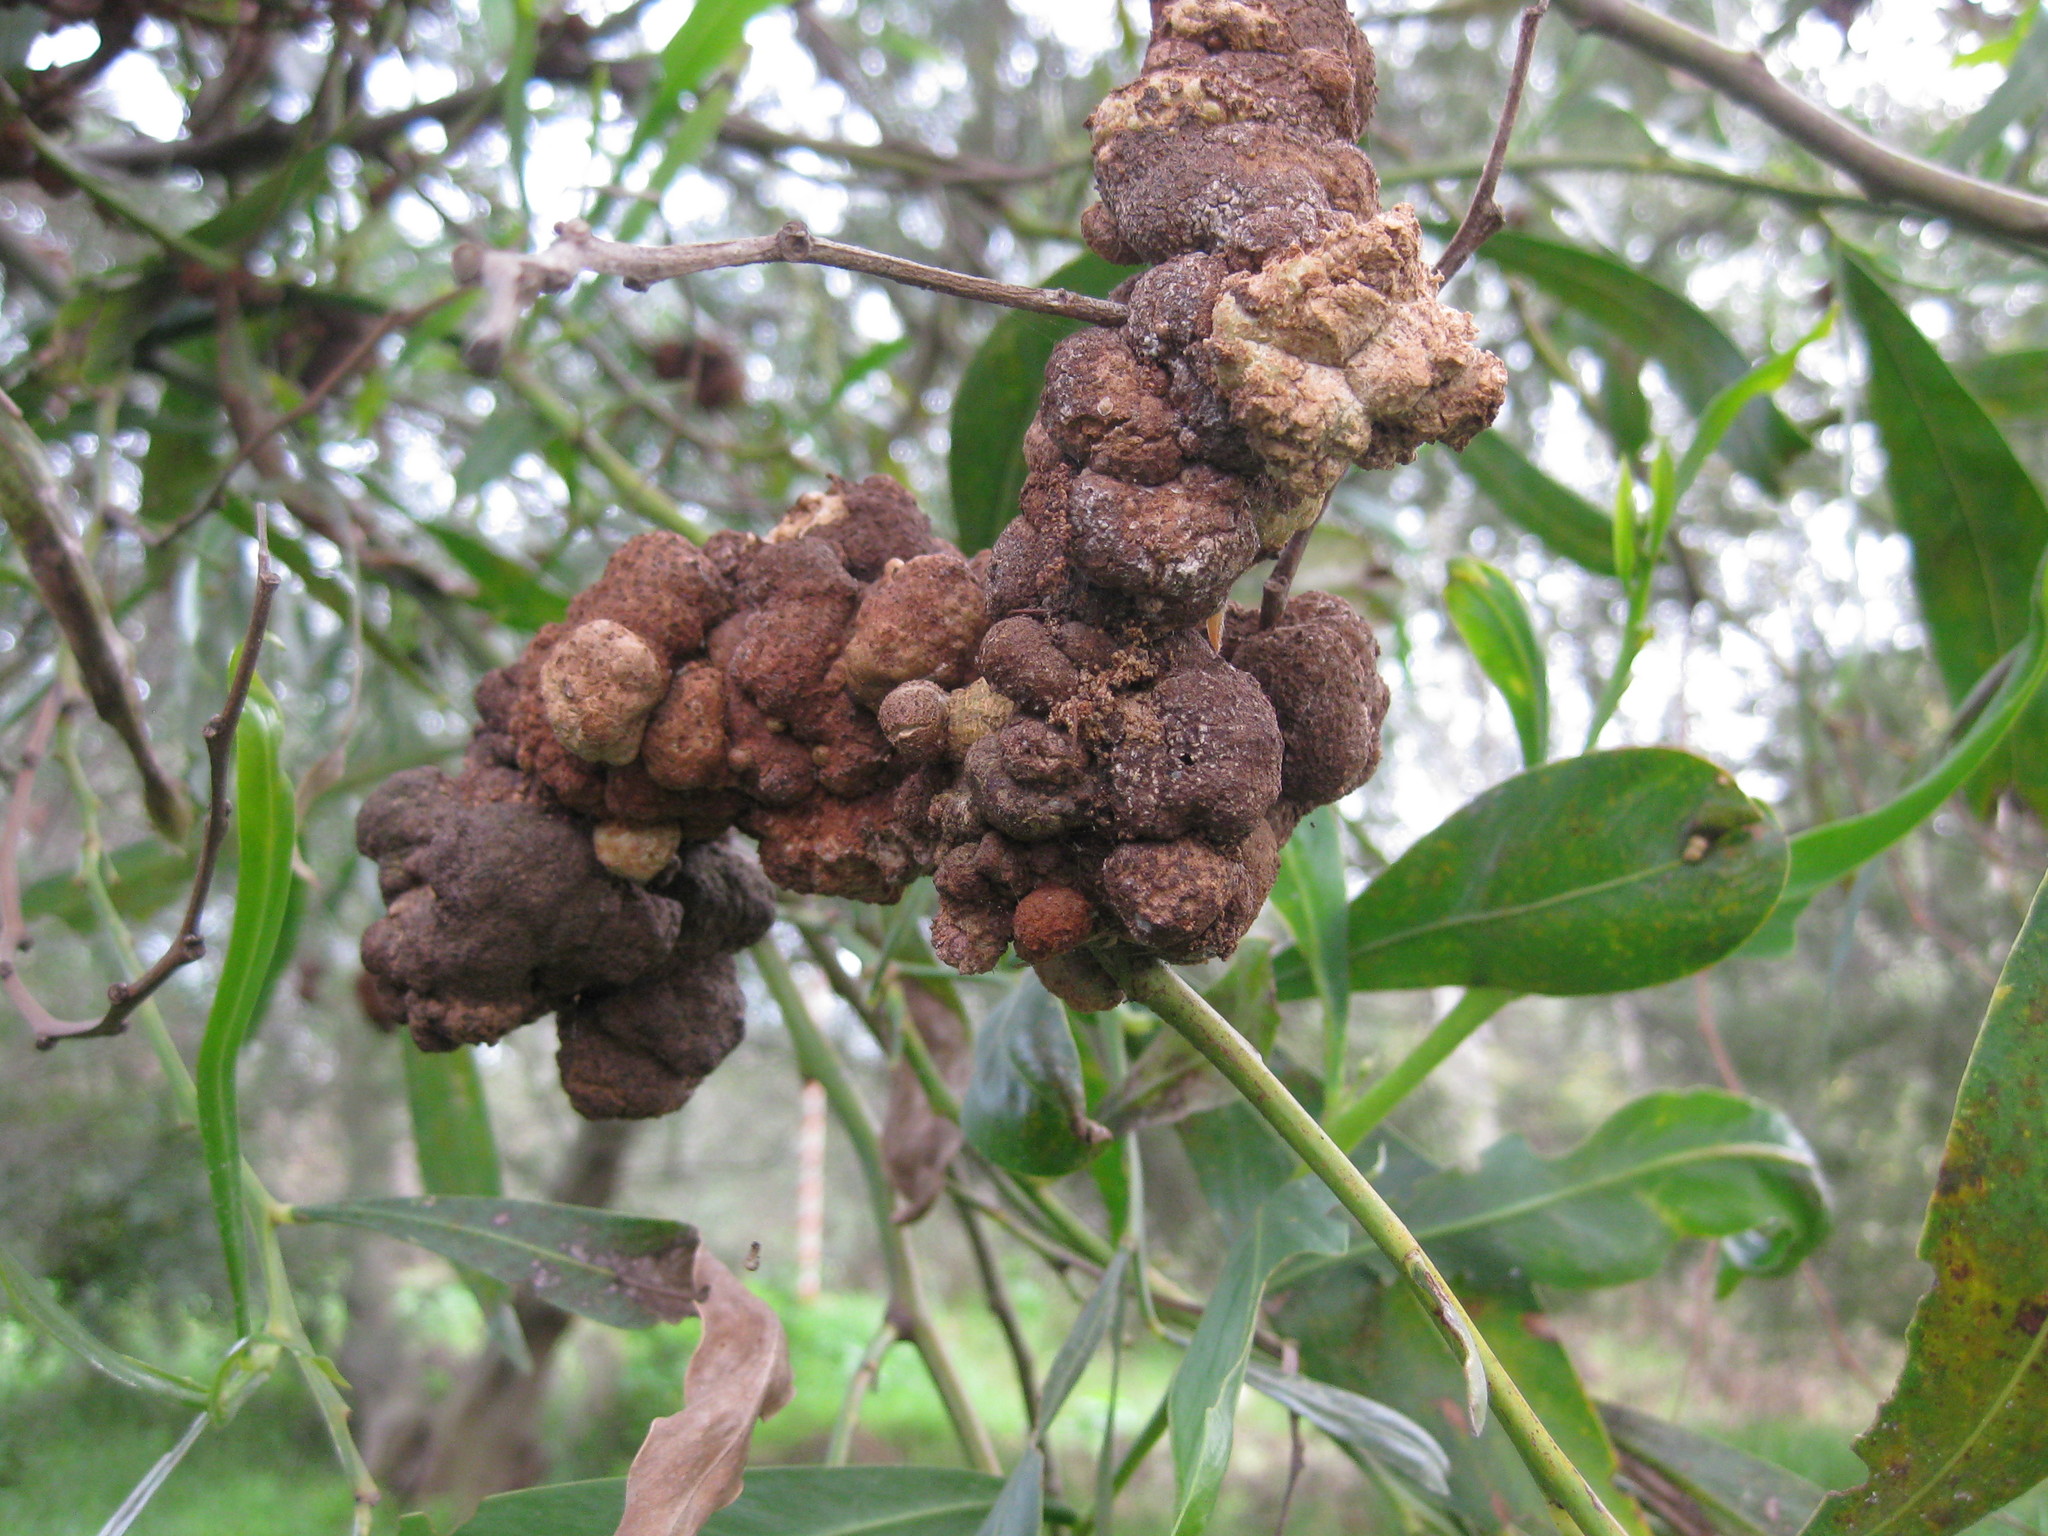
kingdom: Fungi
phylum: Basidiomycota
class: Pucciniomycetes
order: Pucciniales
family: Uromycladiaceae
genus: Uromycladium
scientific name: Uromycladium morrisii
